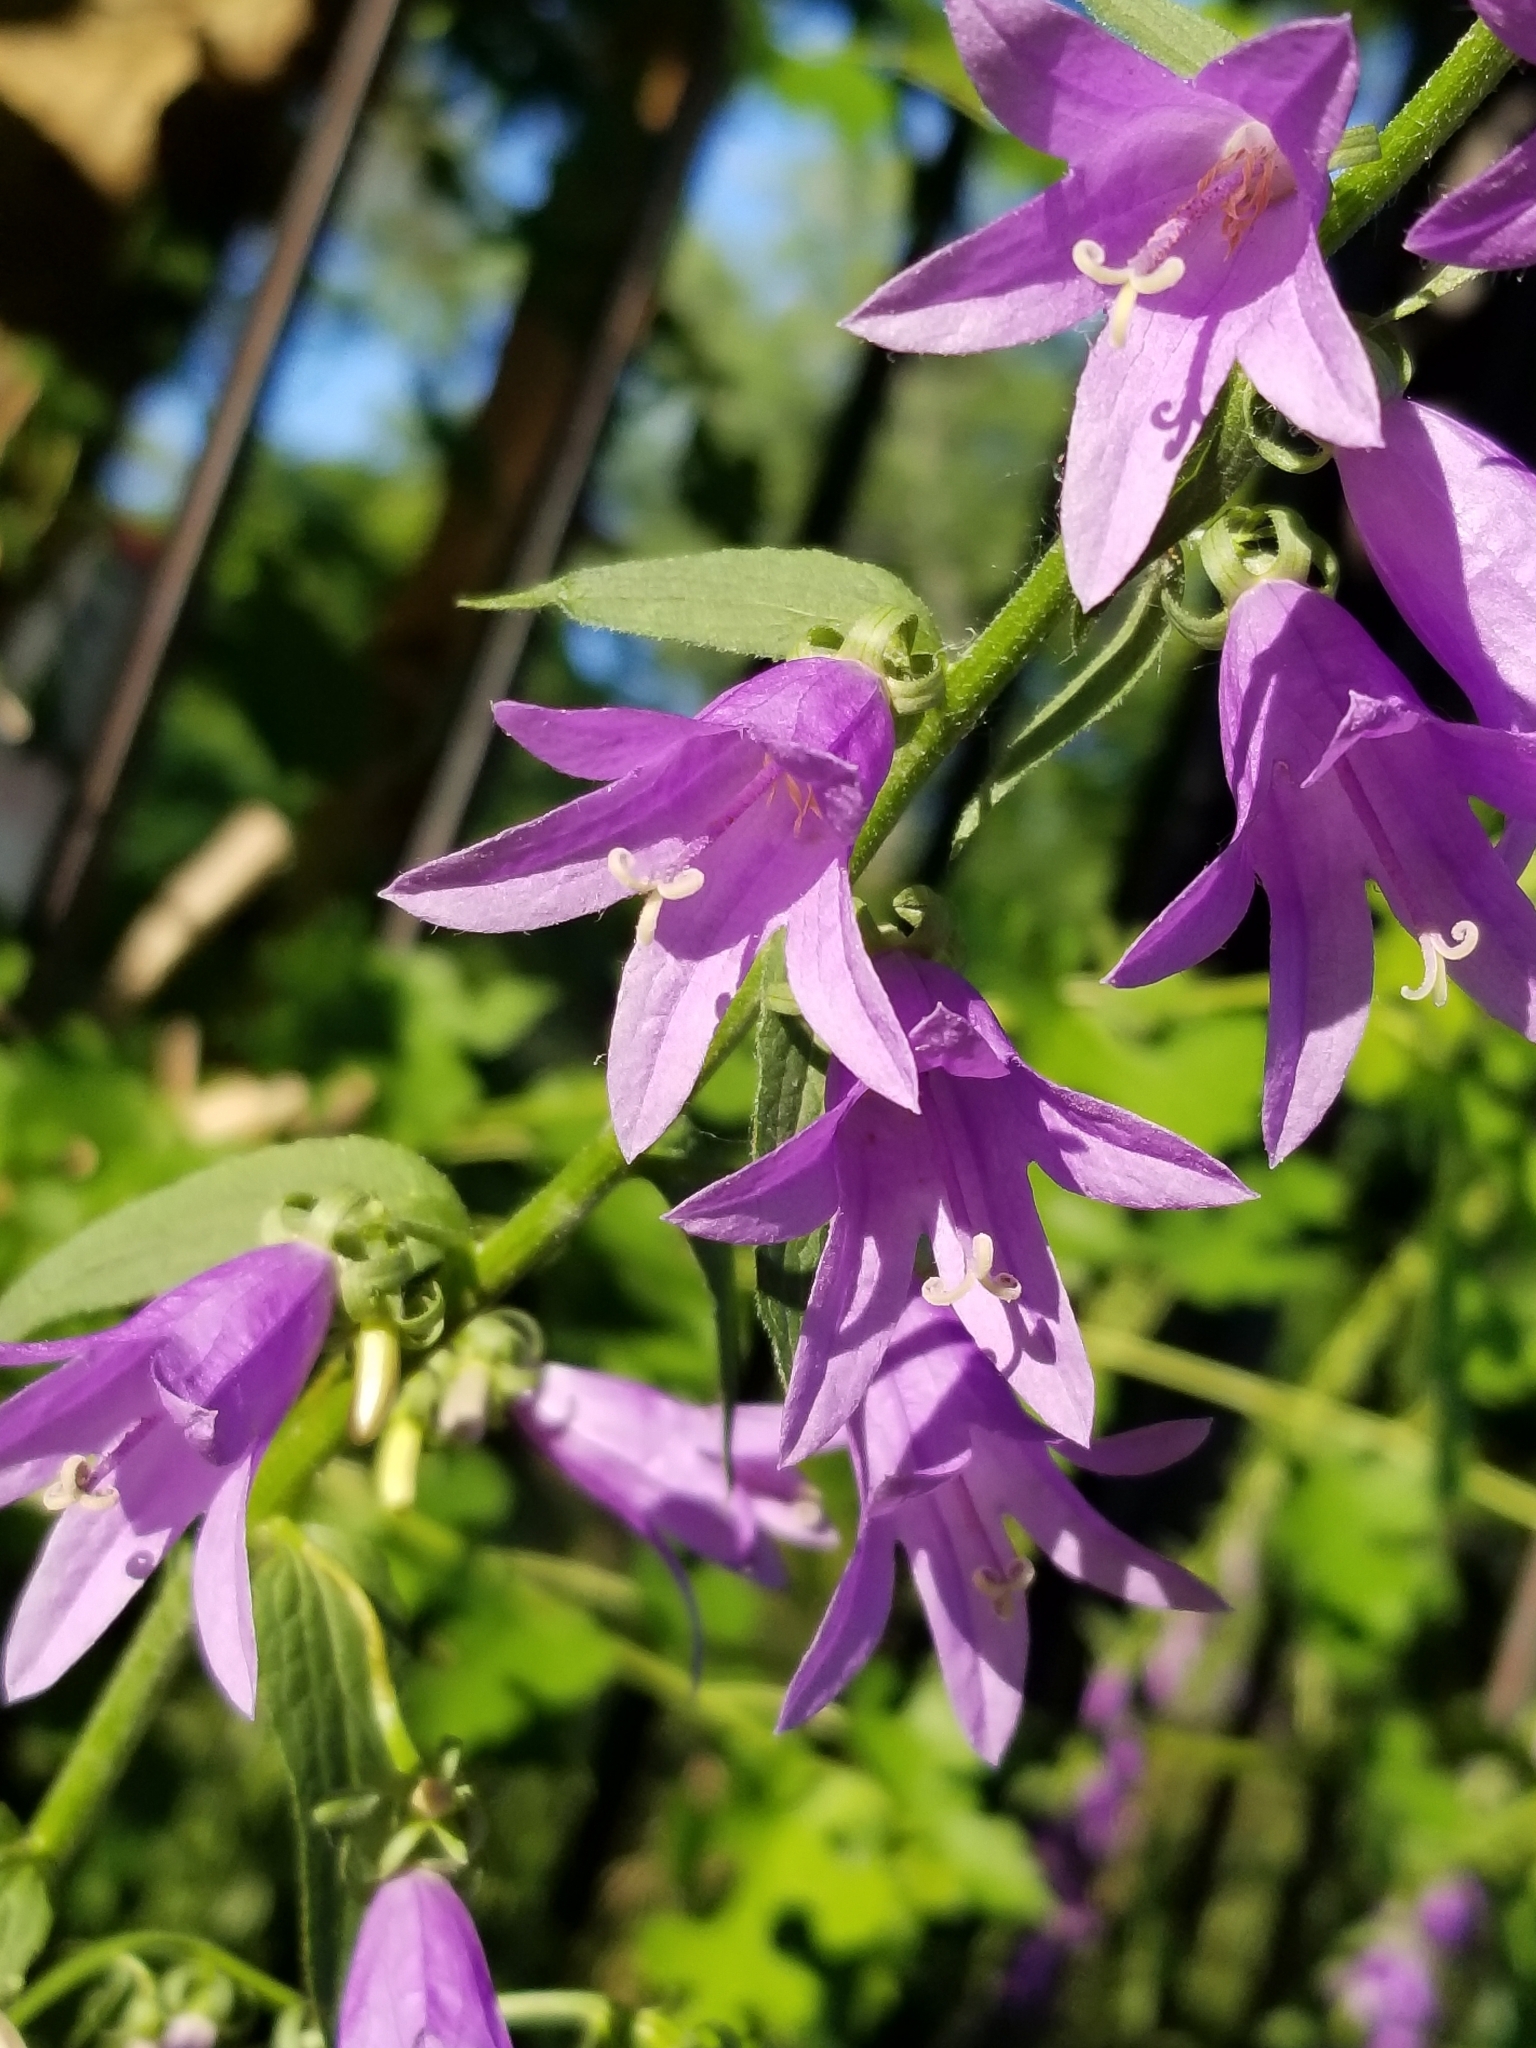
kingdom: Plantae
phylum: Tracheophyta
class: Magnoliopsida
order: Asterales
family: Campanulaceae
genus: Campanula
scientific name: Campanula rapunculoides
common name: Creeping bellflower
